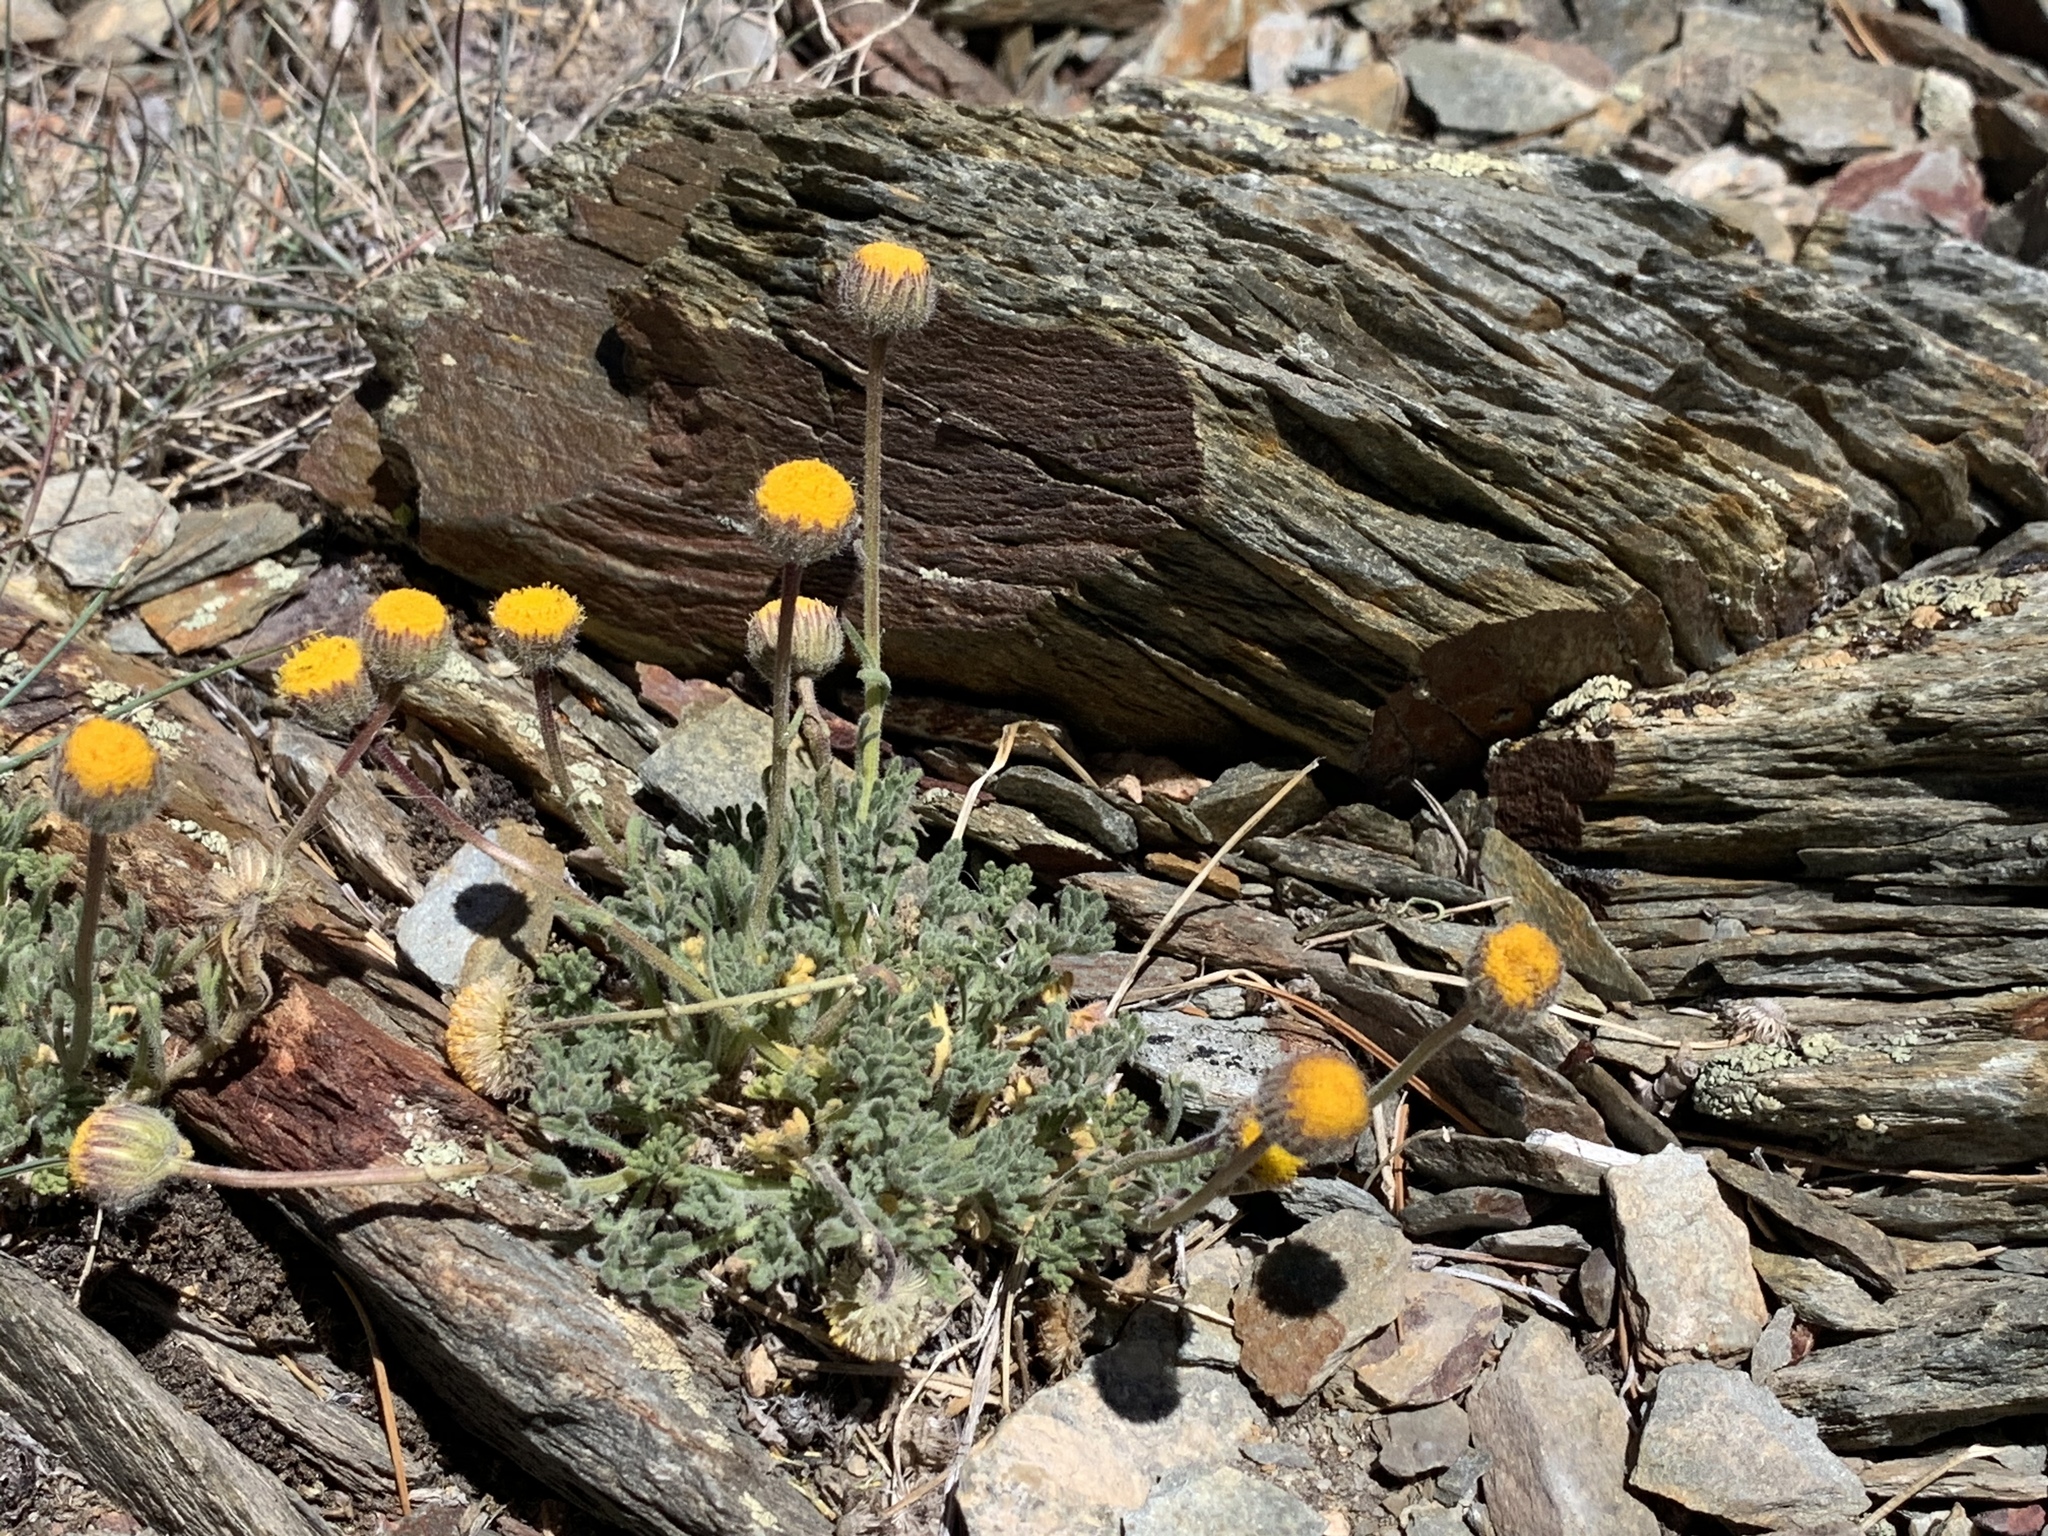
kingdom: Plantae
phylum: Tracheophyta
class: Magnoliopsida
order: Asterales
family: Asteraceae
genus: Erigeron
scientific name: Erigeron compositus
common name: Dwarf mountain fleabane
